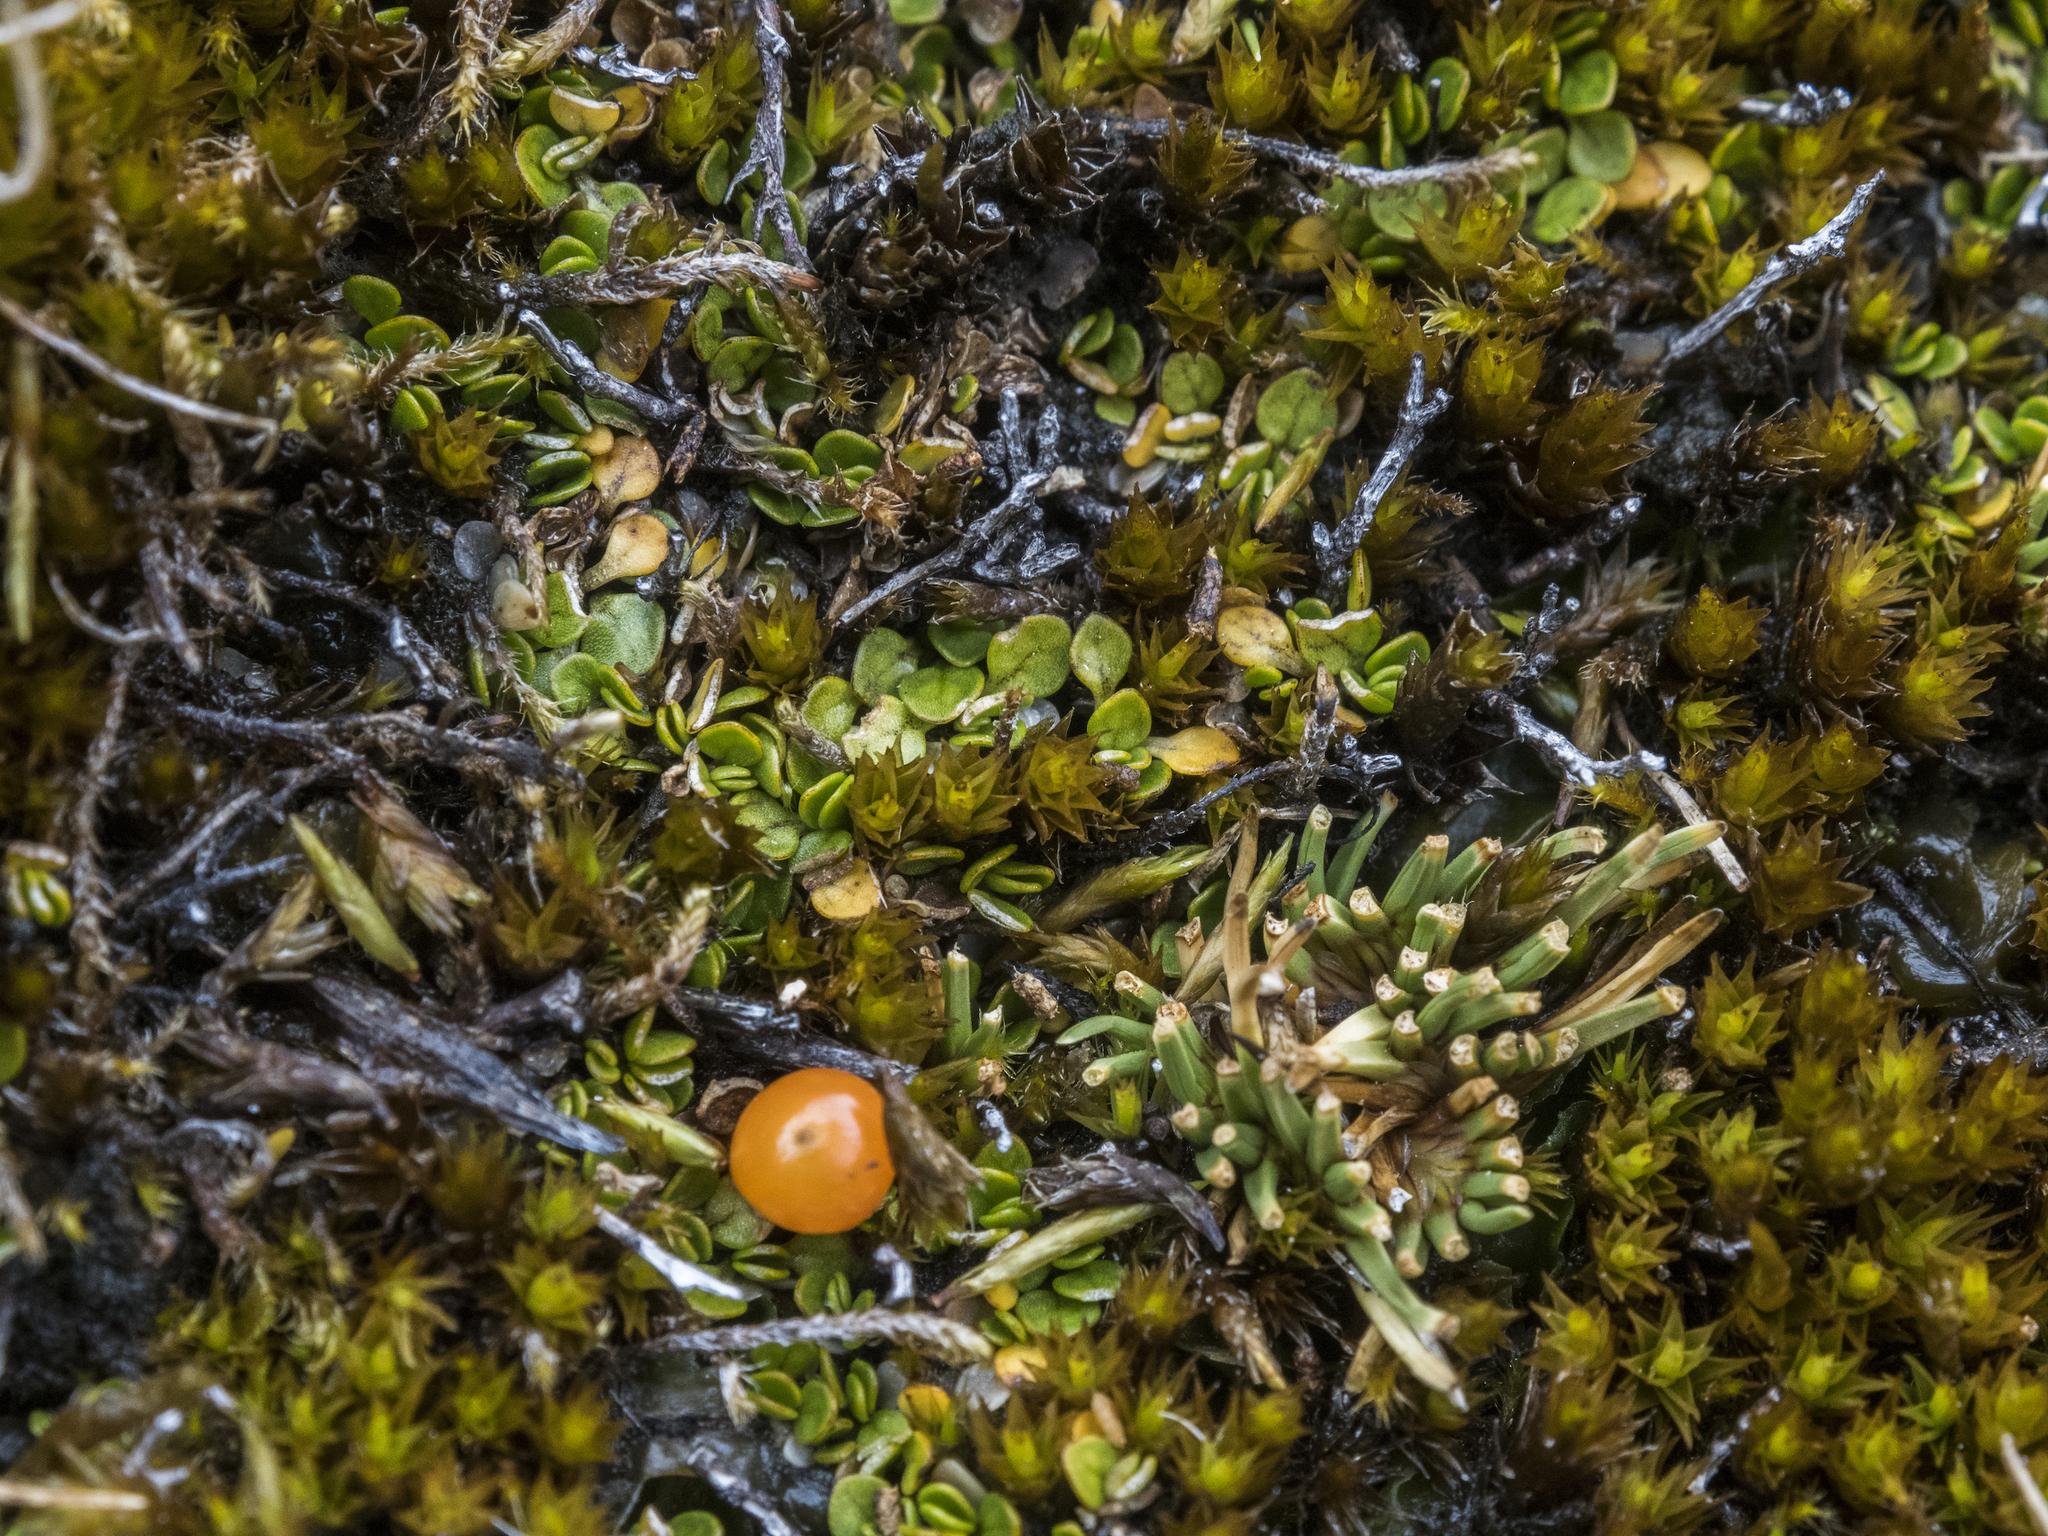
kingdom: Plantae
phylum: Tracheophyta
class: Magnoliopsida
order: Gentianales
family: Rubiaceae
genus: Nertera
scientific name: Nertera balfouriana
